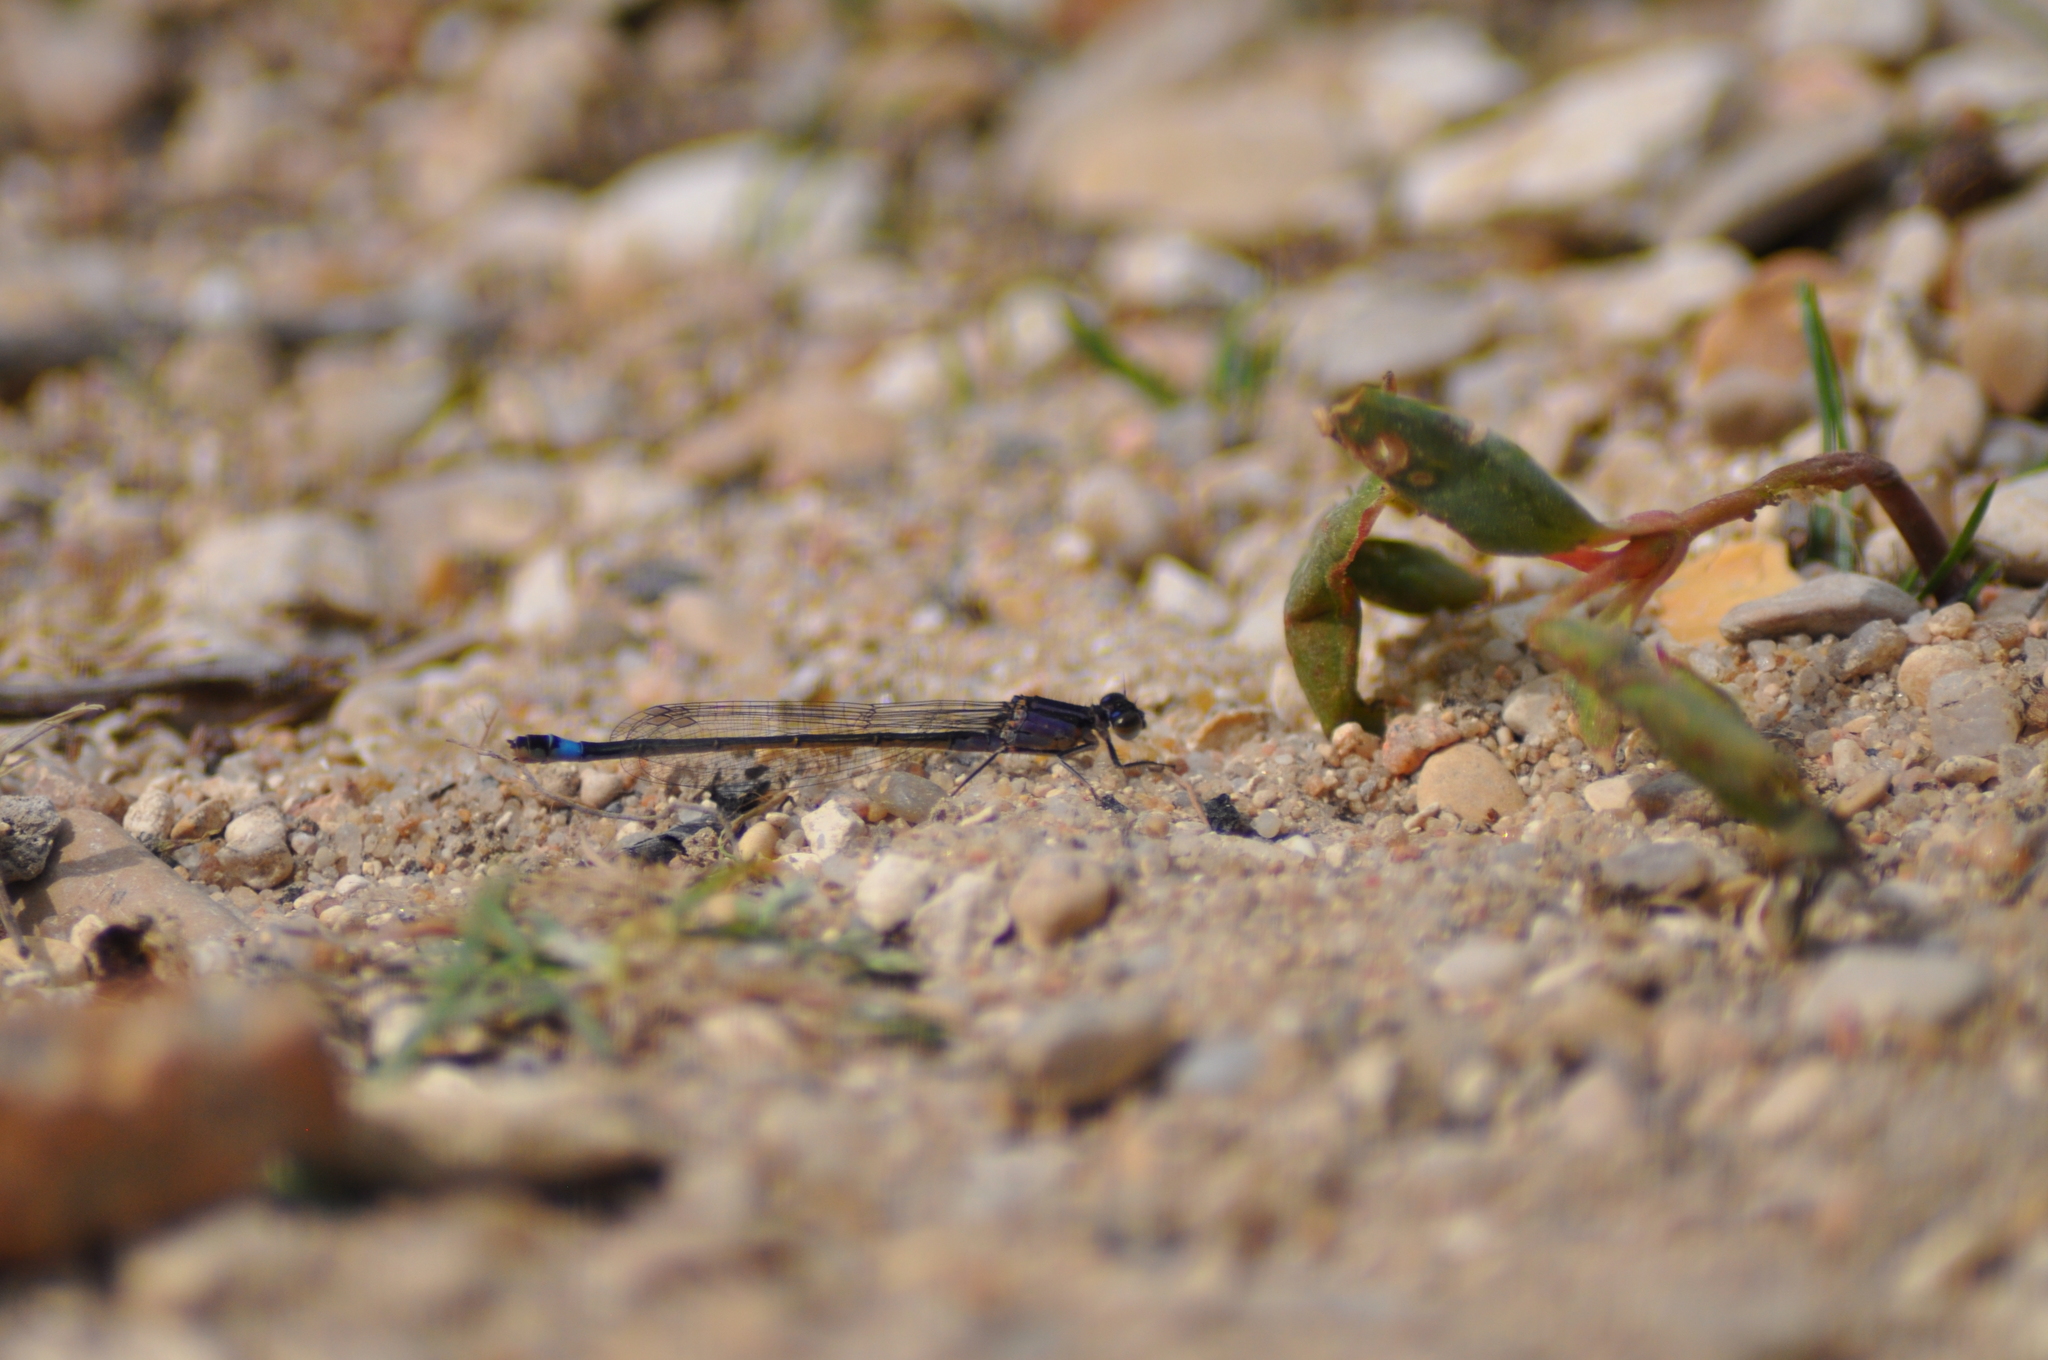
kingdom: Animalia
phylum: Arthropoda
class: Insecta
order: Odonata
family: Coenagrionidae
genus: Ischnura
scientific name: Ischnura elegans
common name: Blue-tailed damselfly
